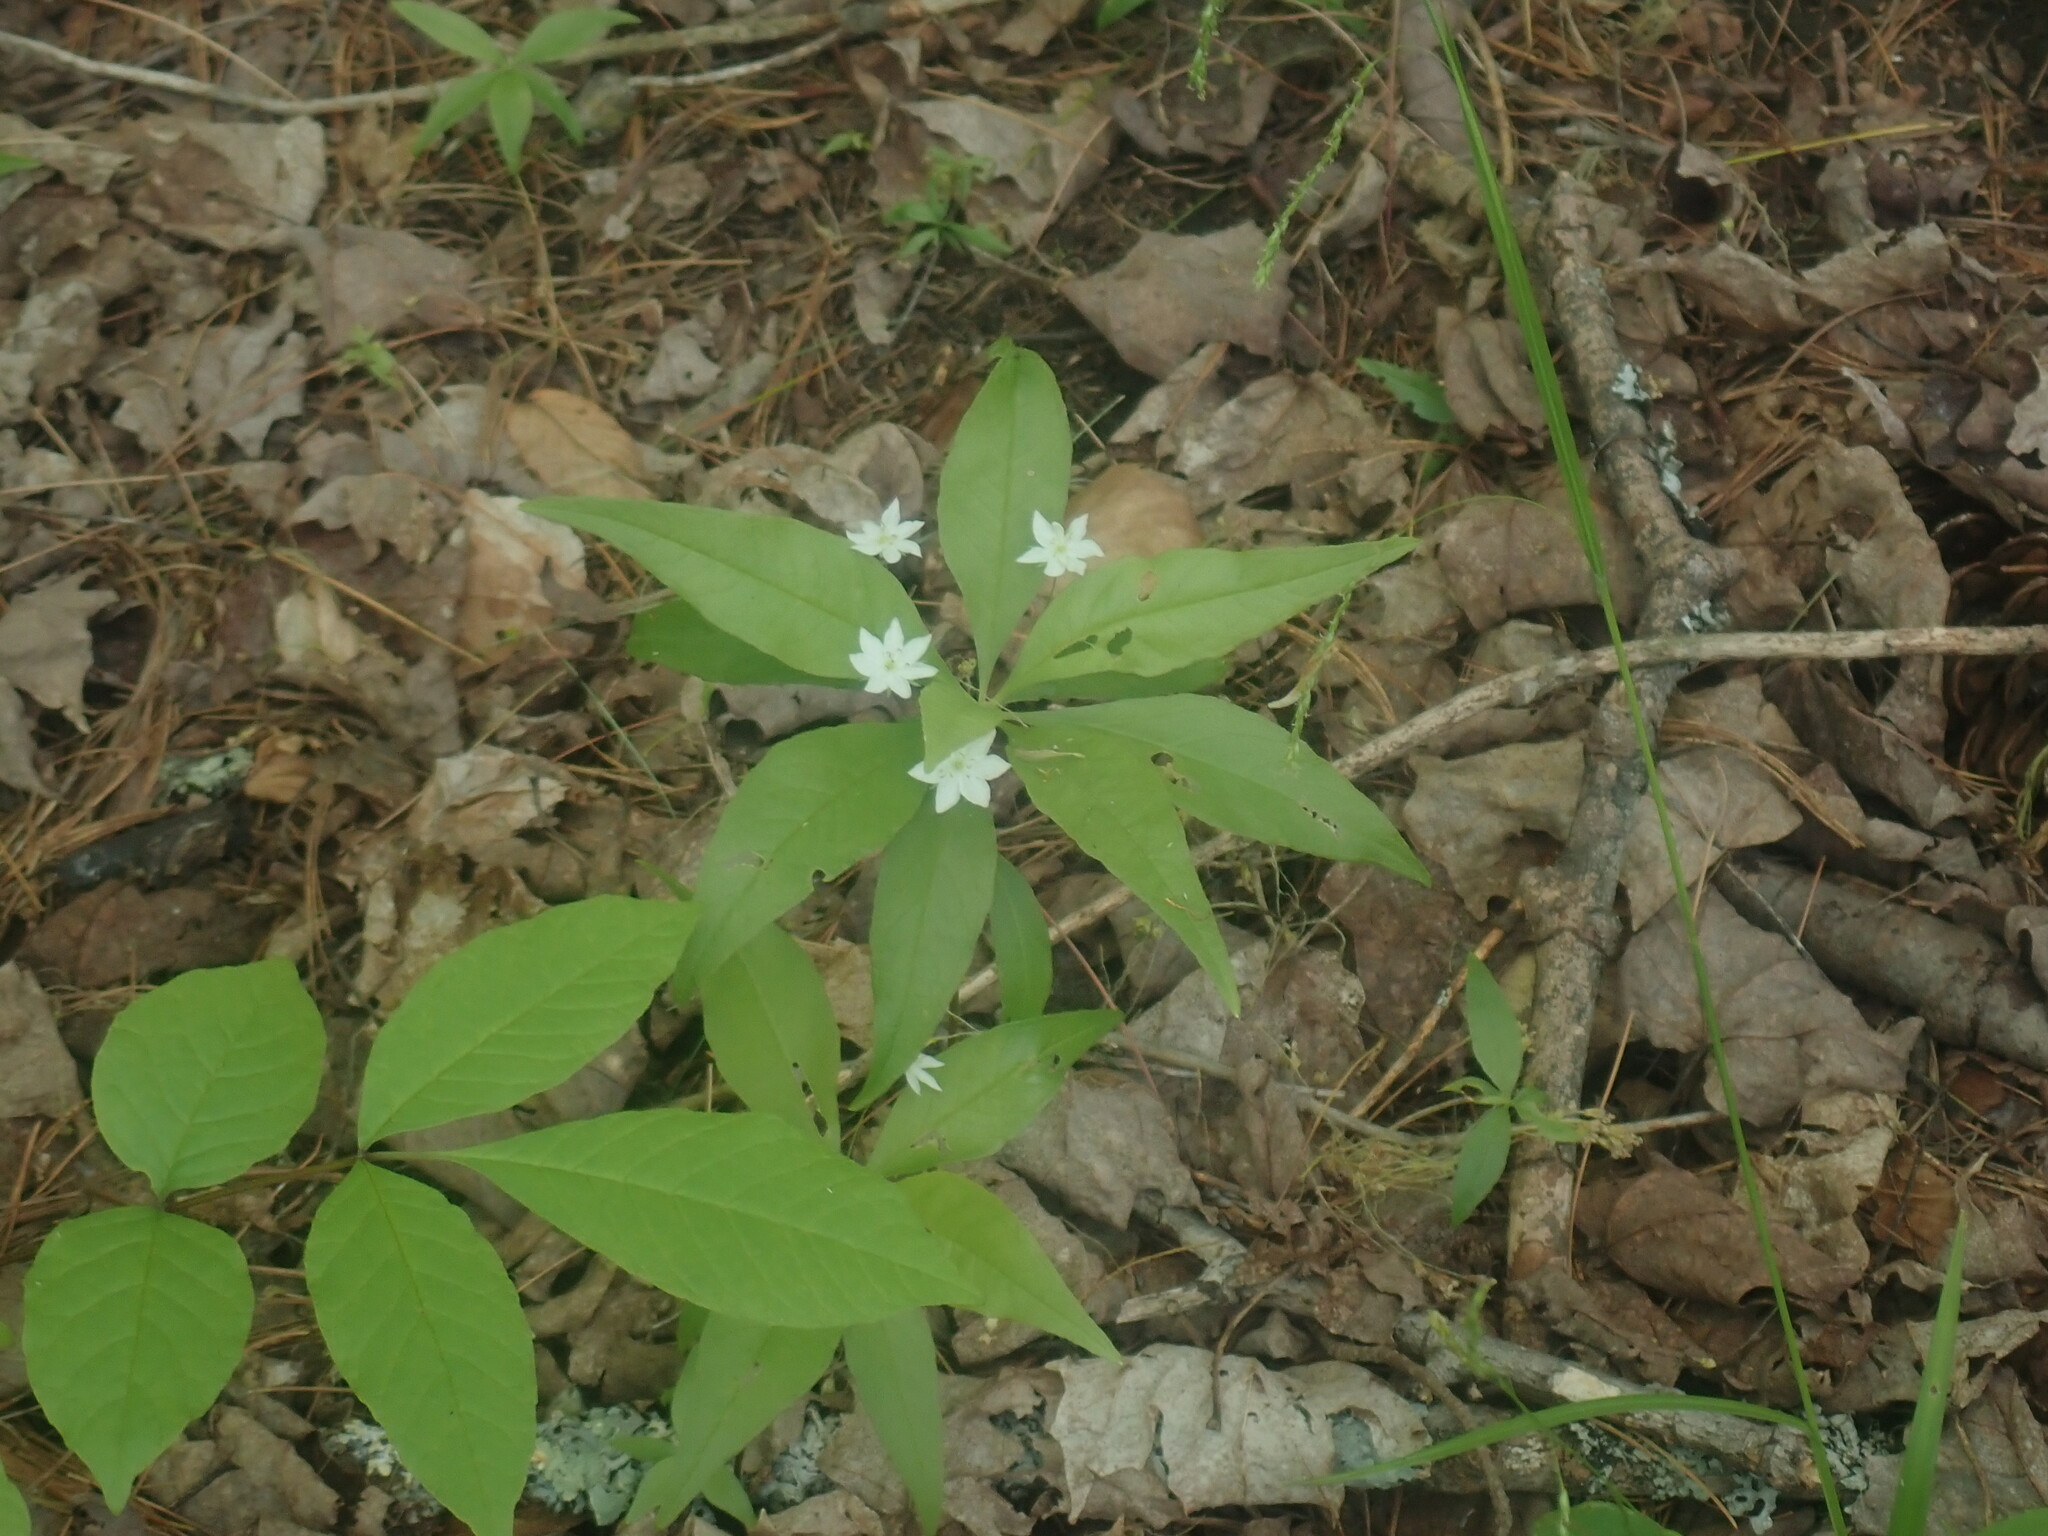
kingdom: Plantae
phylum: Tracheophyta
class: Magnoliopsida
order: Ericales
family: Primulaceae
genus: Lysimachia
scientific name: Lysimachia borealis
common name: American starflower
